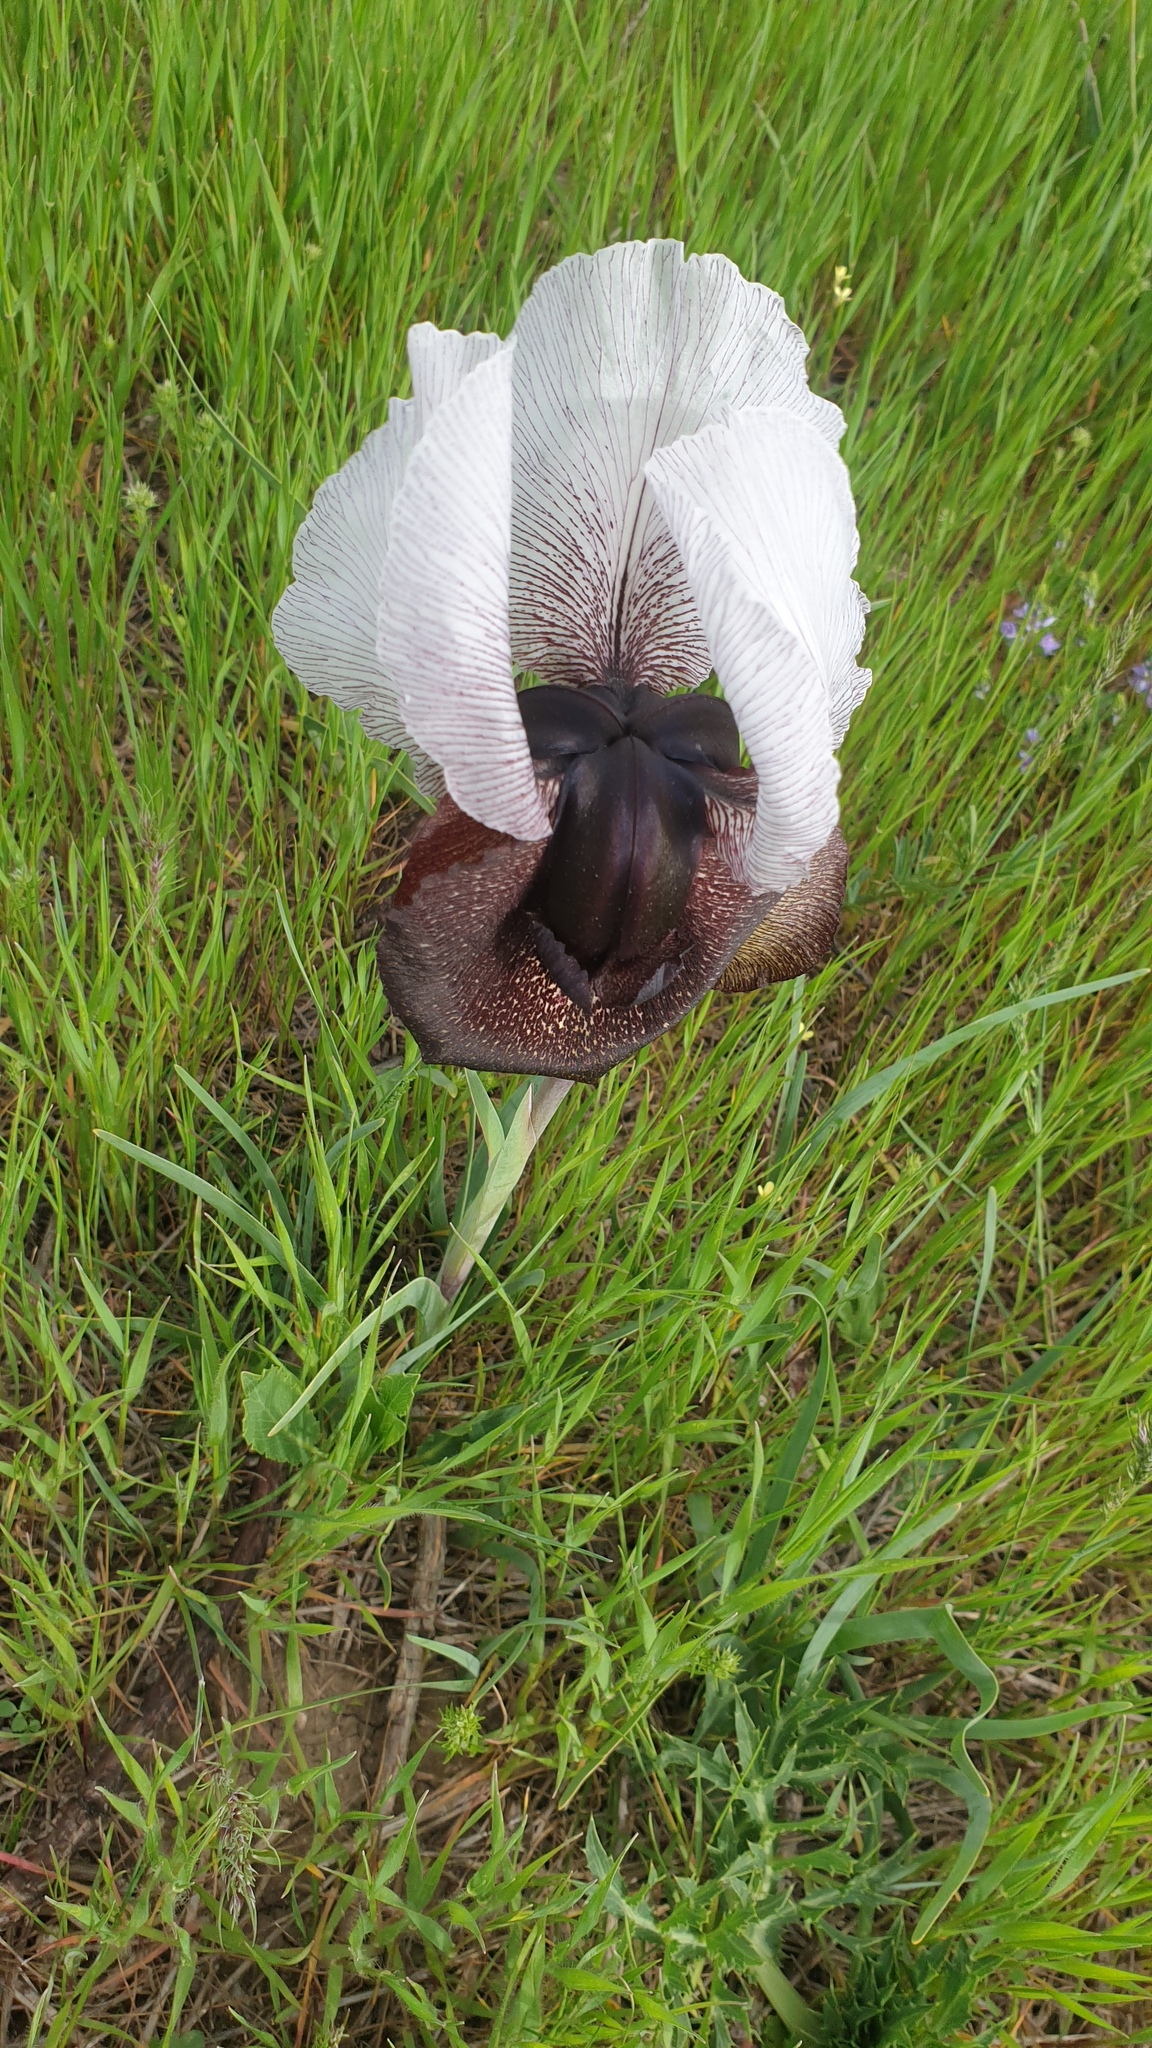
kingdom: Plantae
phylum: Tracheophyta
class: Liliopsida
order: Asparagales
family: Iridaceae
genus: Iris
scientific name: Iris iberica
